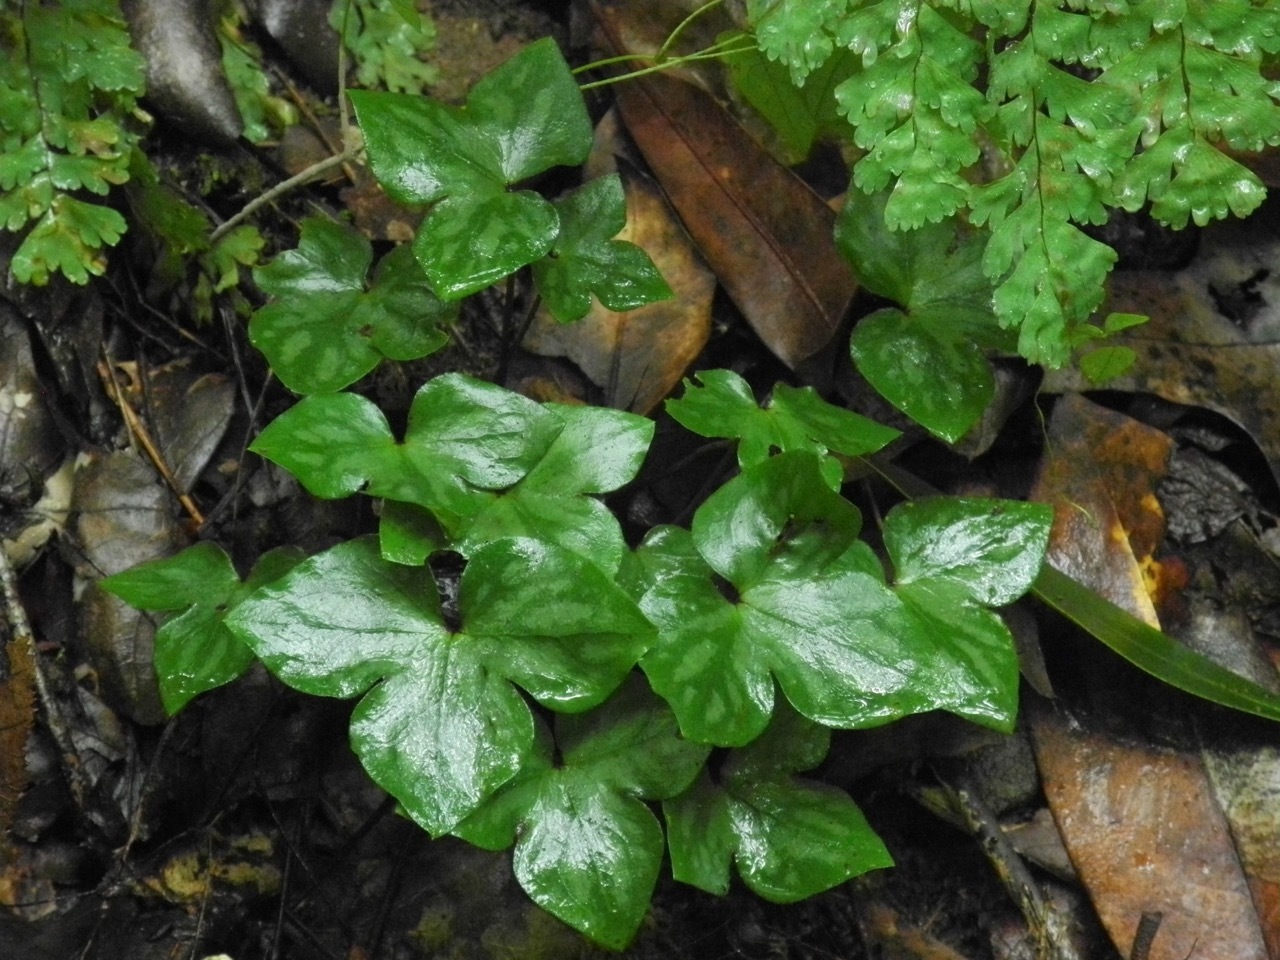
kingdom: Plantae
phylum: Tracheophyta
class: Magnoliopsida
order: Ranunculales
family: Ranunculaceae
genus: Hepatica
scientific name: Hepatica acutiloba
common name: Sharp-lobed hepatica
